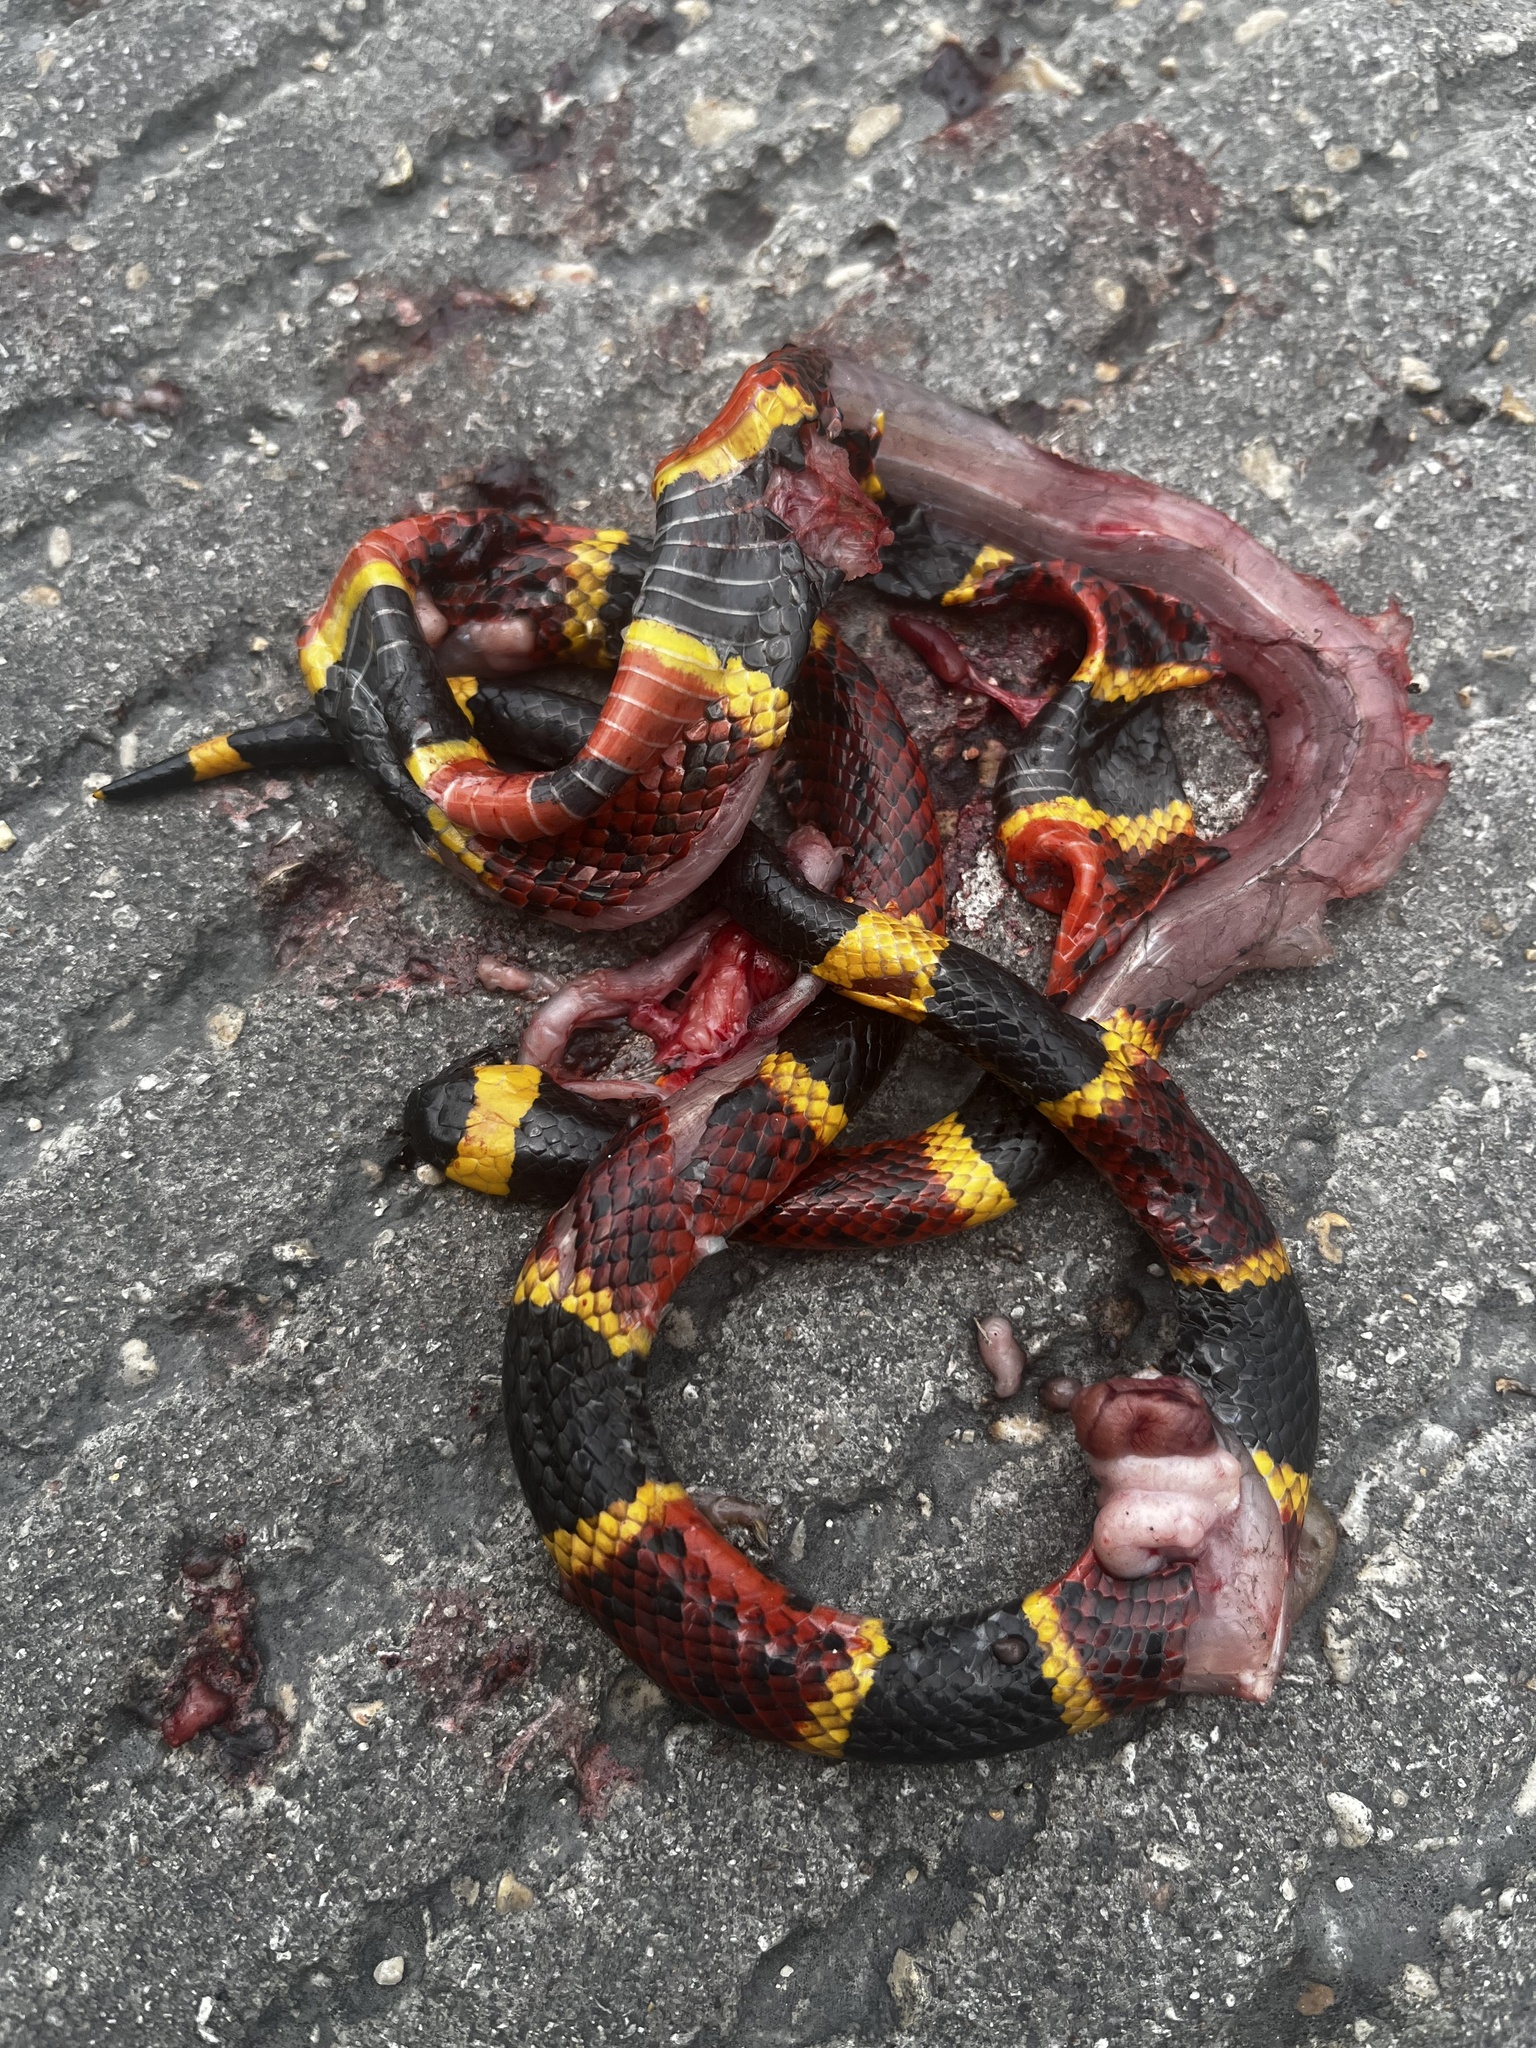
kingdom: Animalia
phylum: Chordata
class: Squamata
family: Elapidae
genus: Micrurus
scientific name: Micrurus tener
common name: Texas coral snake
